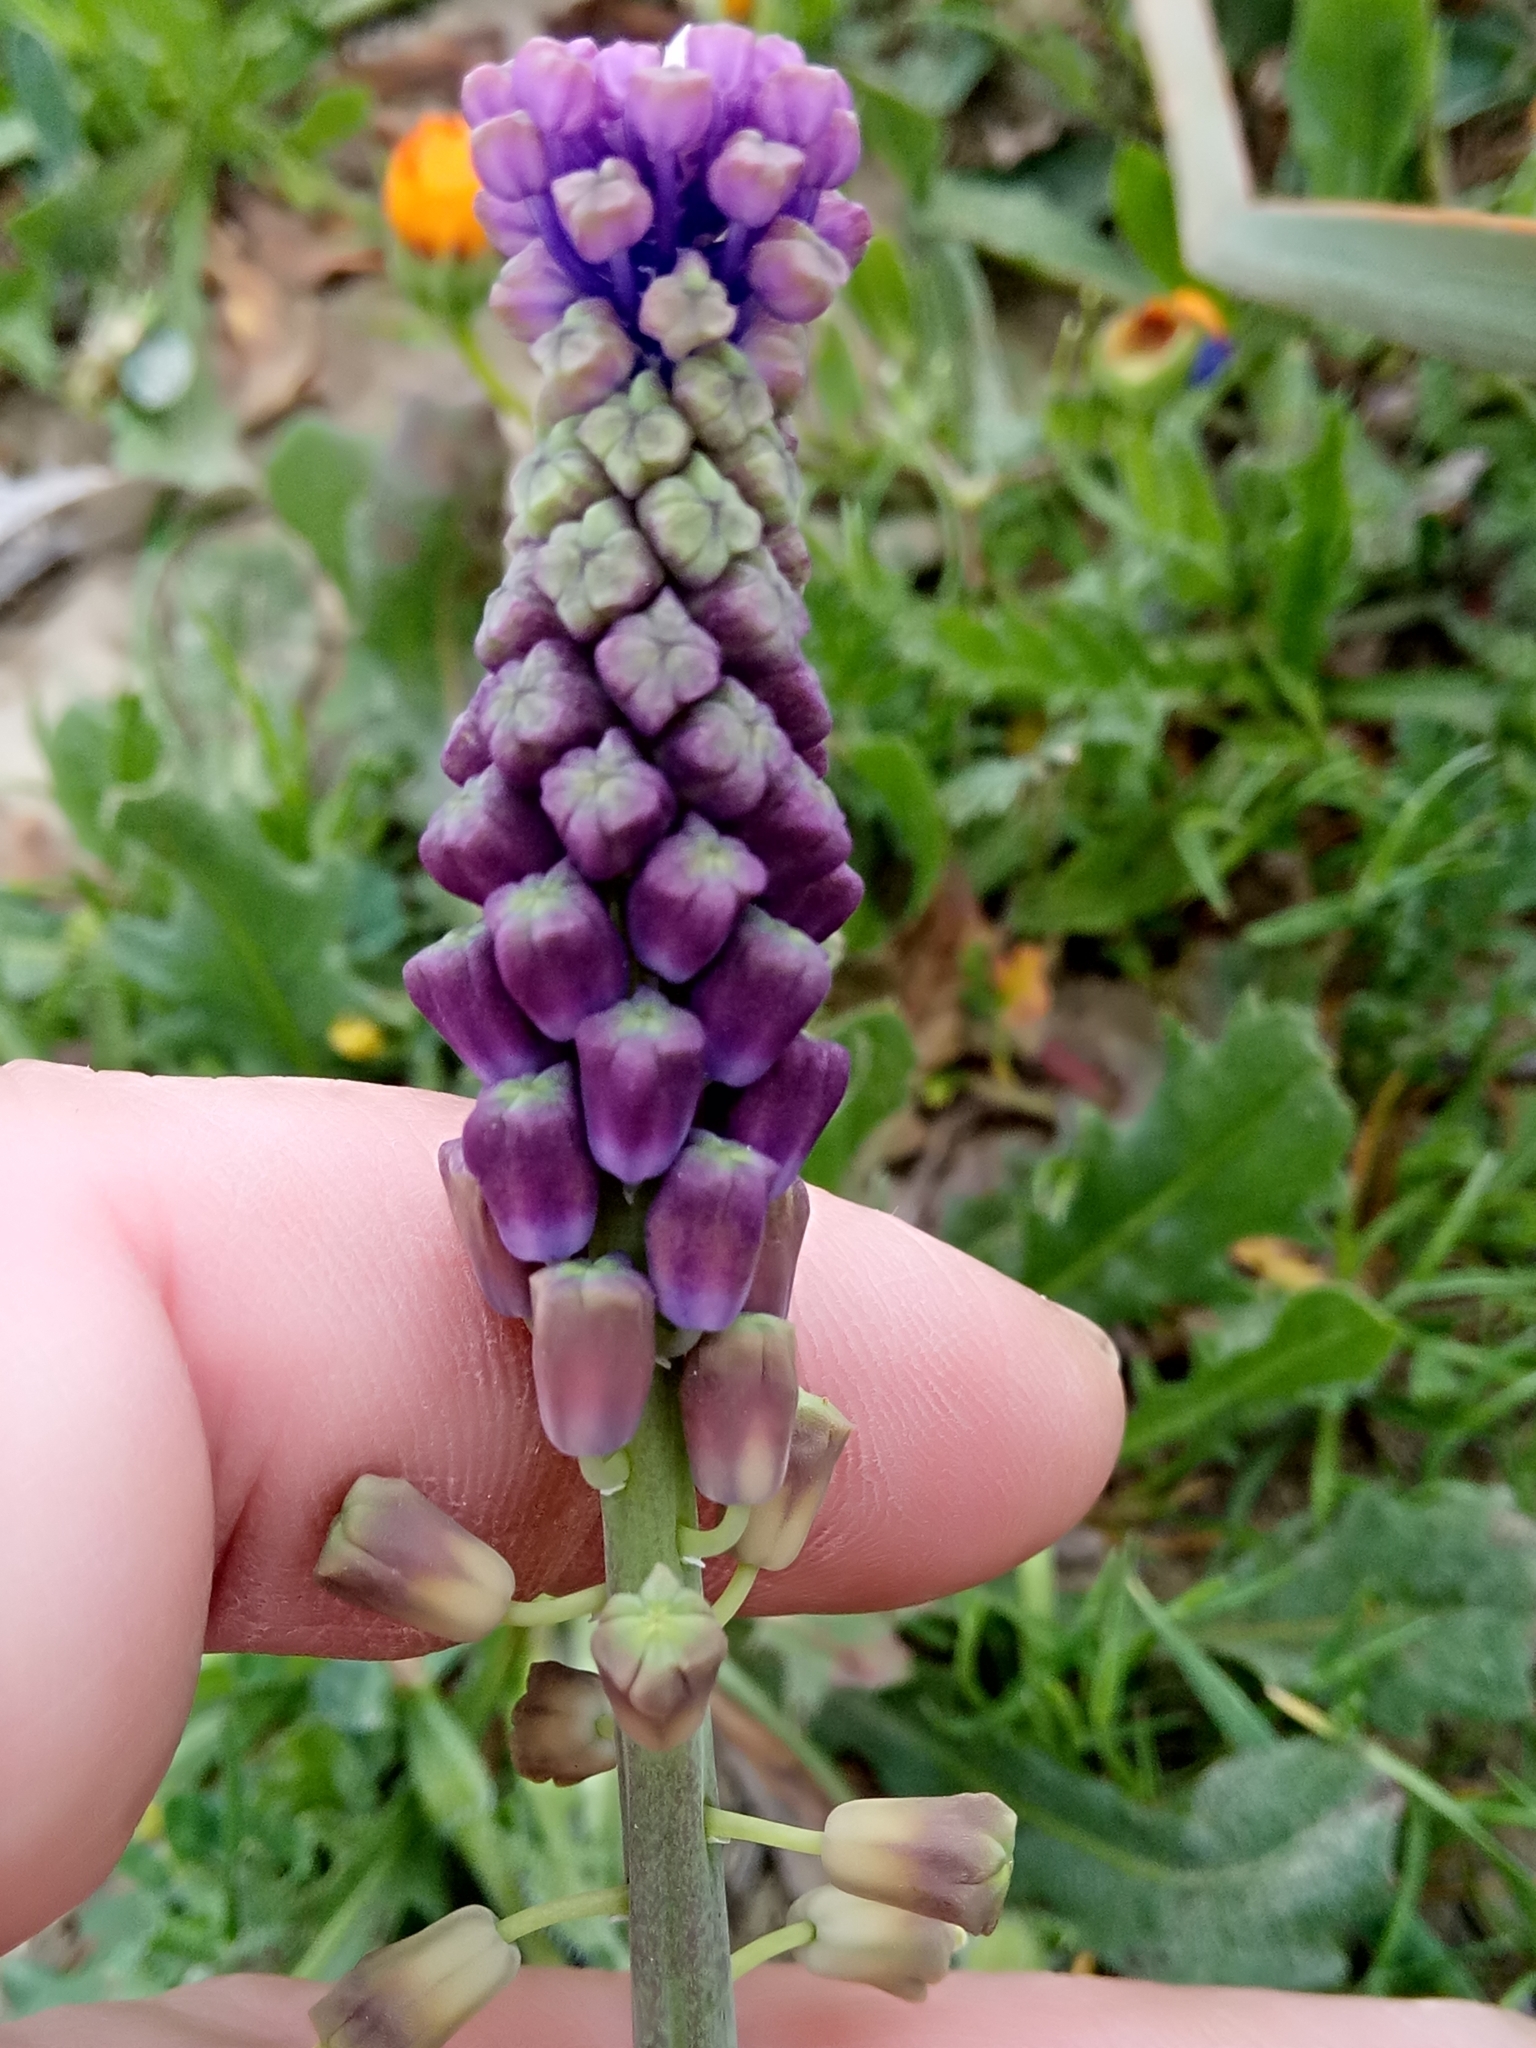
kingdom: Plantae
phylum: Tracheophyta
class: Liliopsida
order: Asparagales
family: Asparagaceae
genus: Muscari
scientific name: Muscari comosum
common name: Tassel hyacinth
